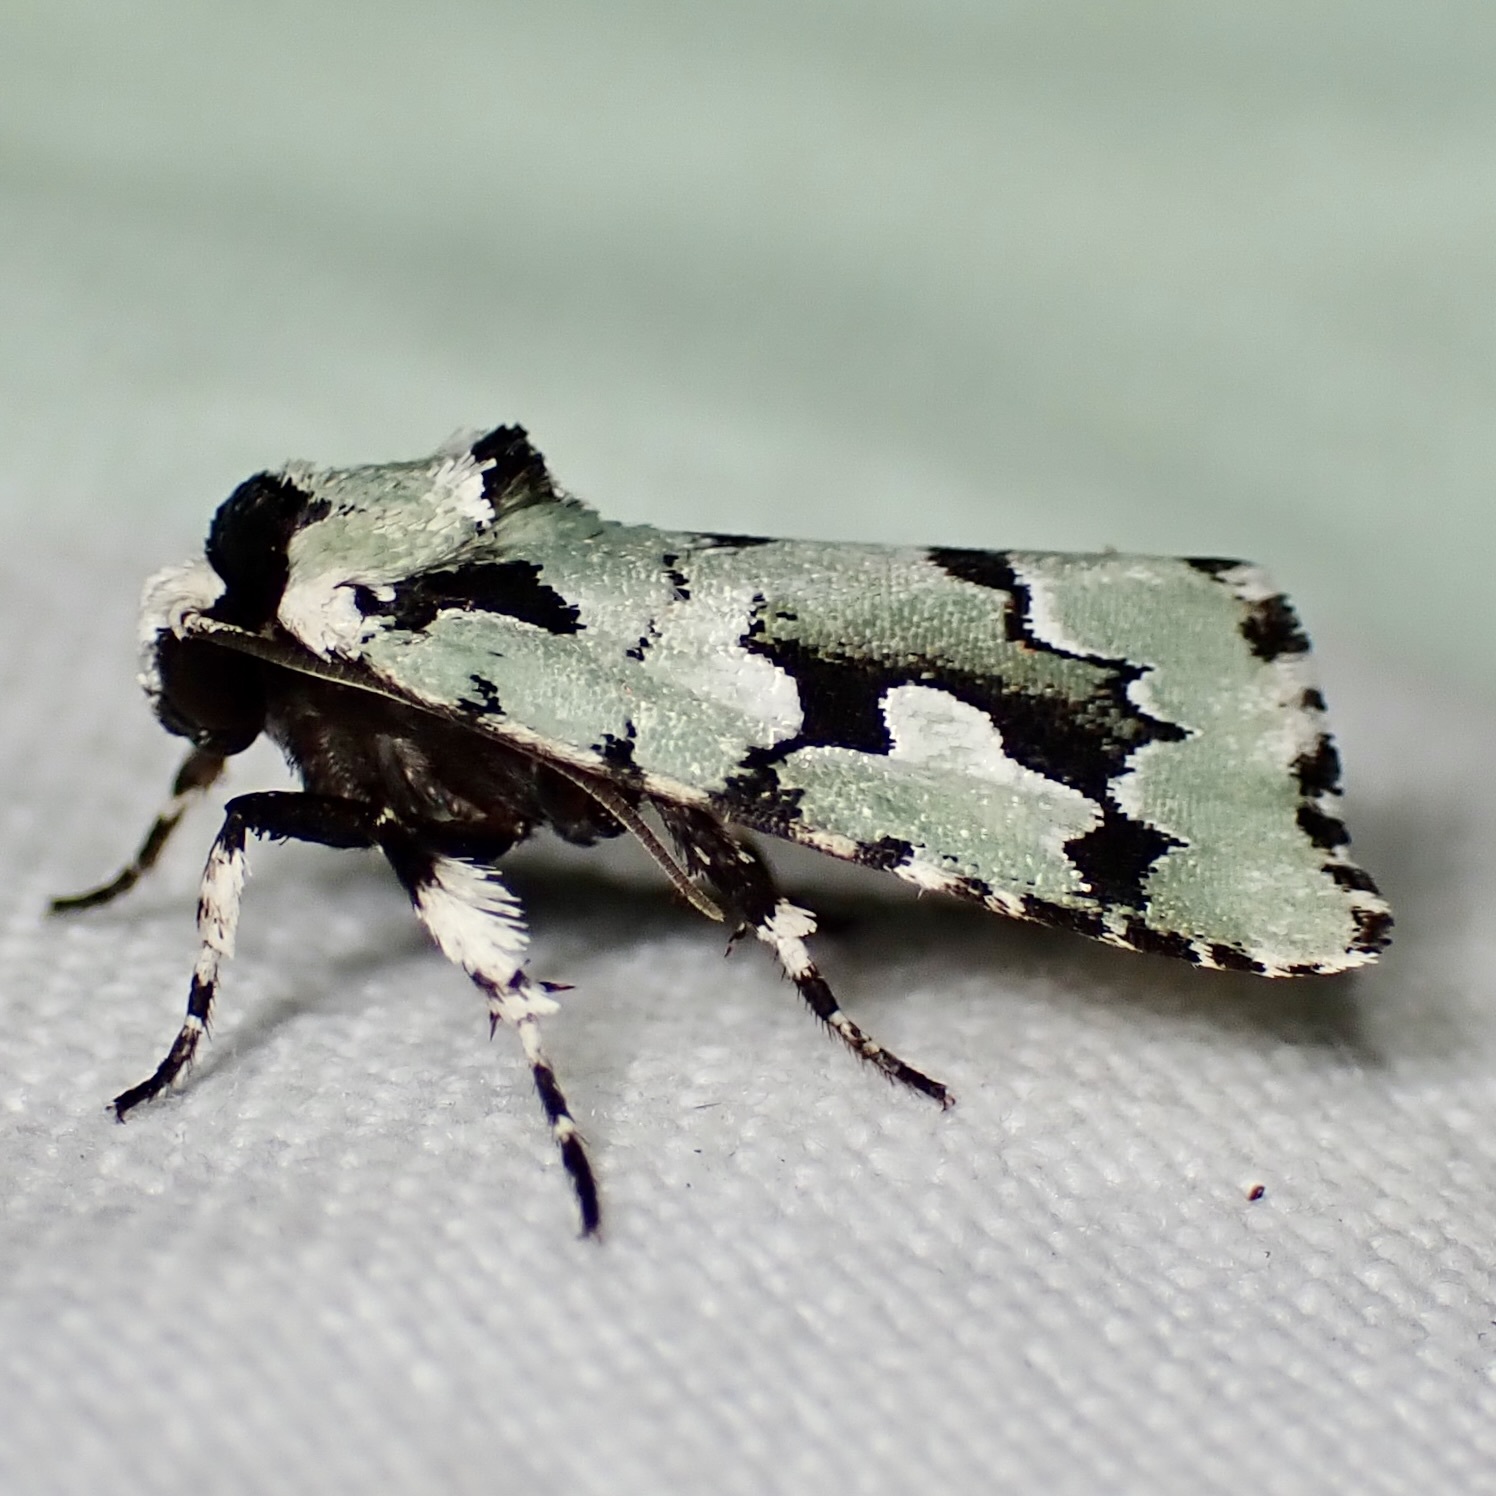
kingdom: Animalia
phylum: Arthropoda
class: Insecta
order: Lepidoptera
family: Noctuidae
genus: Emarginea
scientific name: Emarginea dulcinea
